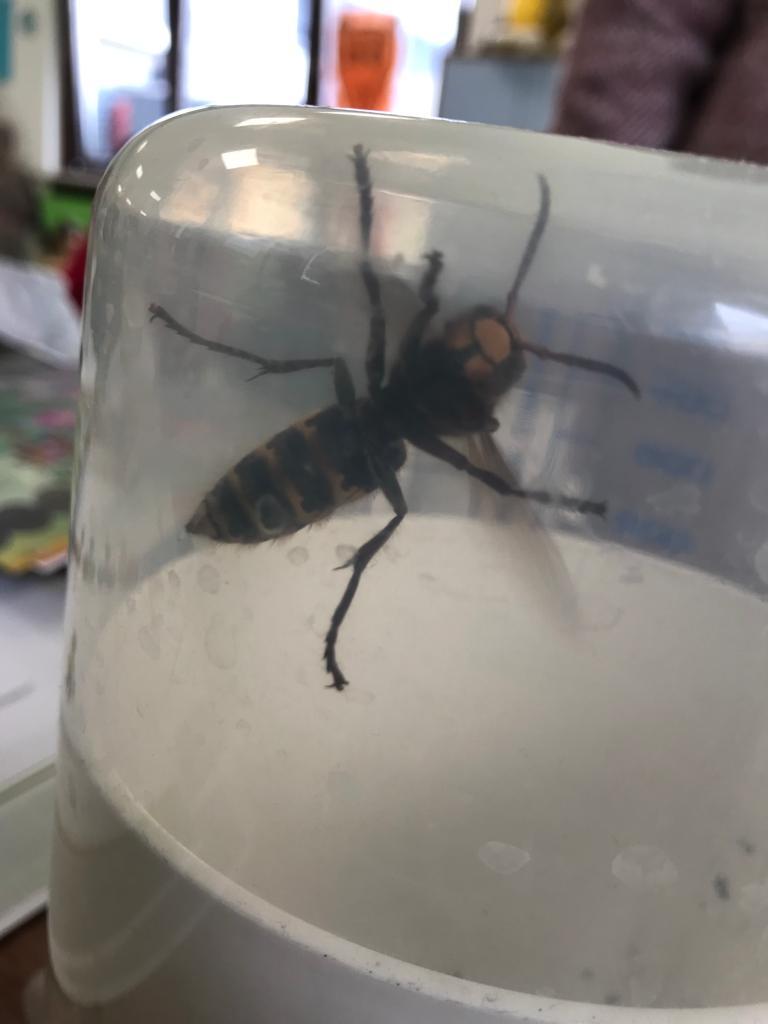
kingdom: Animalia
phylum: Arthropoda
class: Insecta
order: Hymenoptera
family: Vespidae
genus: Vespa
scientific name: Vespa crabro
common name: Hornet
